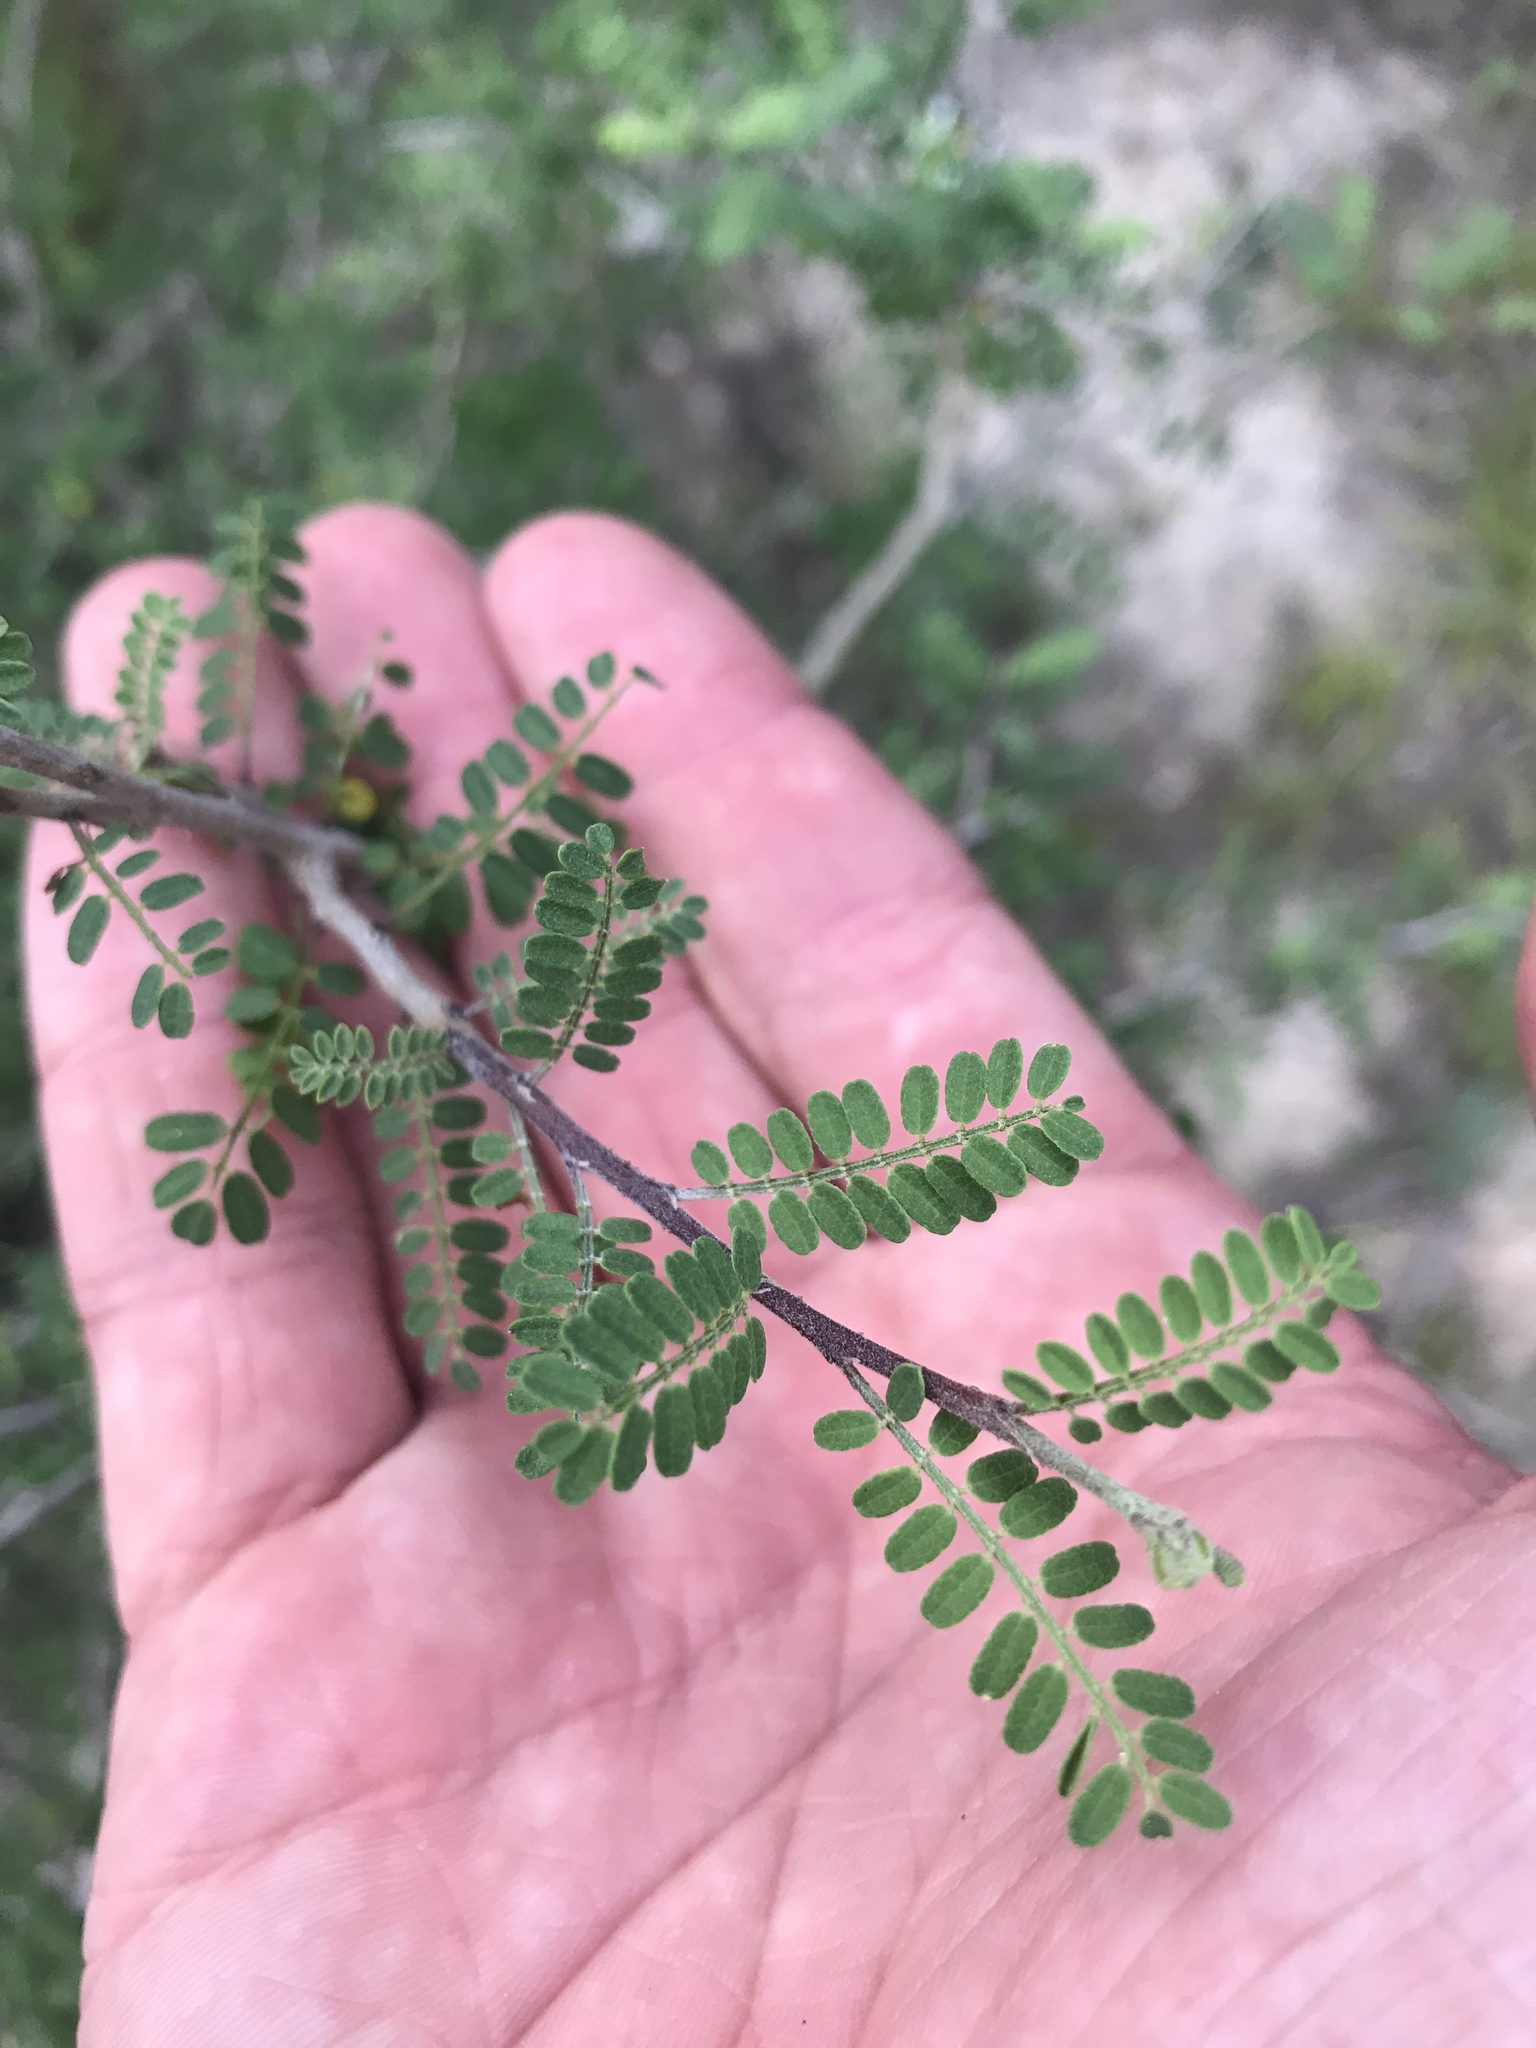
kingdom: Plantae
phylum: Tracheophyta
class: Magnoliopsida
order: Fabales
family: Fabaceae
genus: Eysenhardtia
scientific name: Eysenhardtia texana
